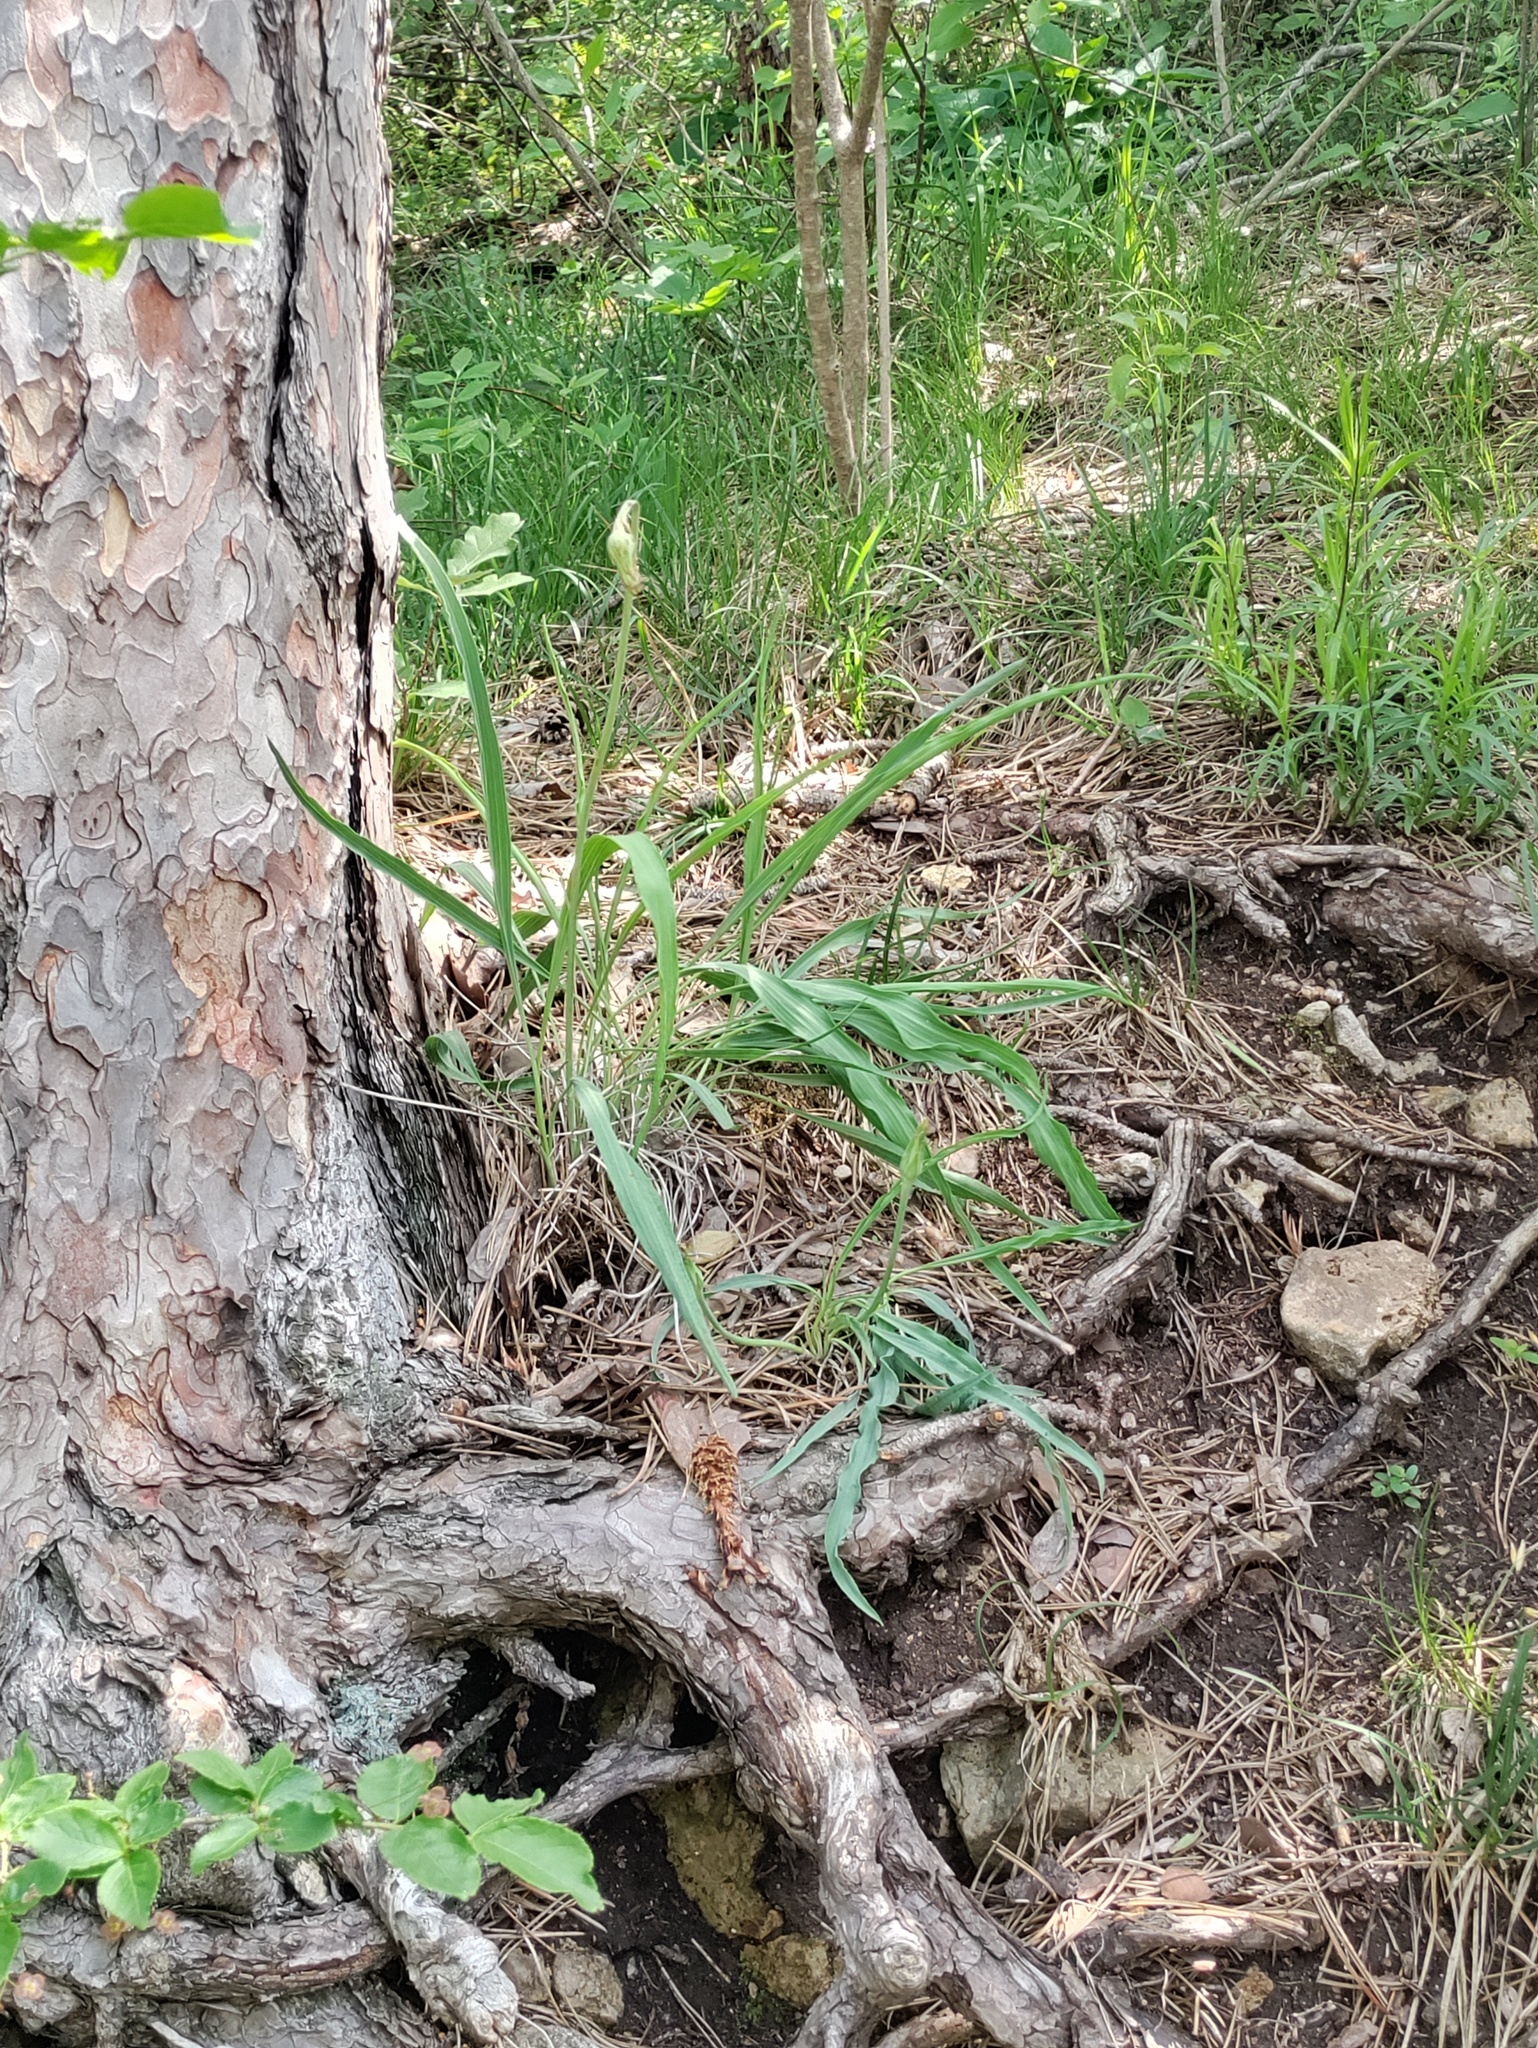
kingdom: Plantae
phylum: Tracheophyta
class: Magnoliopsida
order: Asterales
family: Asteraceae
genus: Takhtajaniantha
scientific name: Takhtajaniantha austriaca
